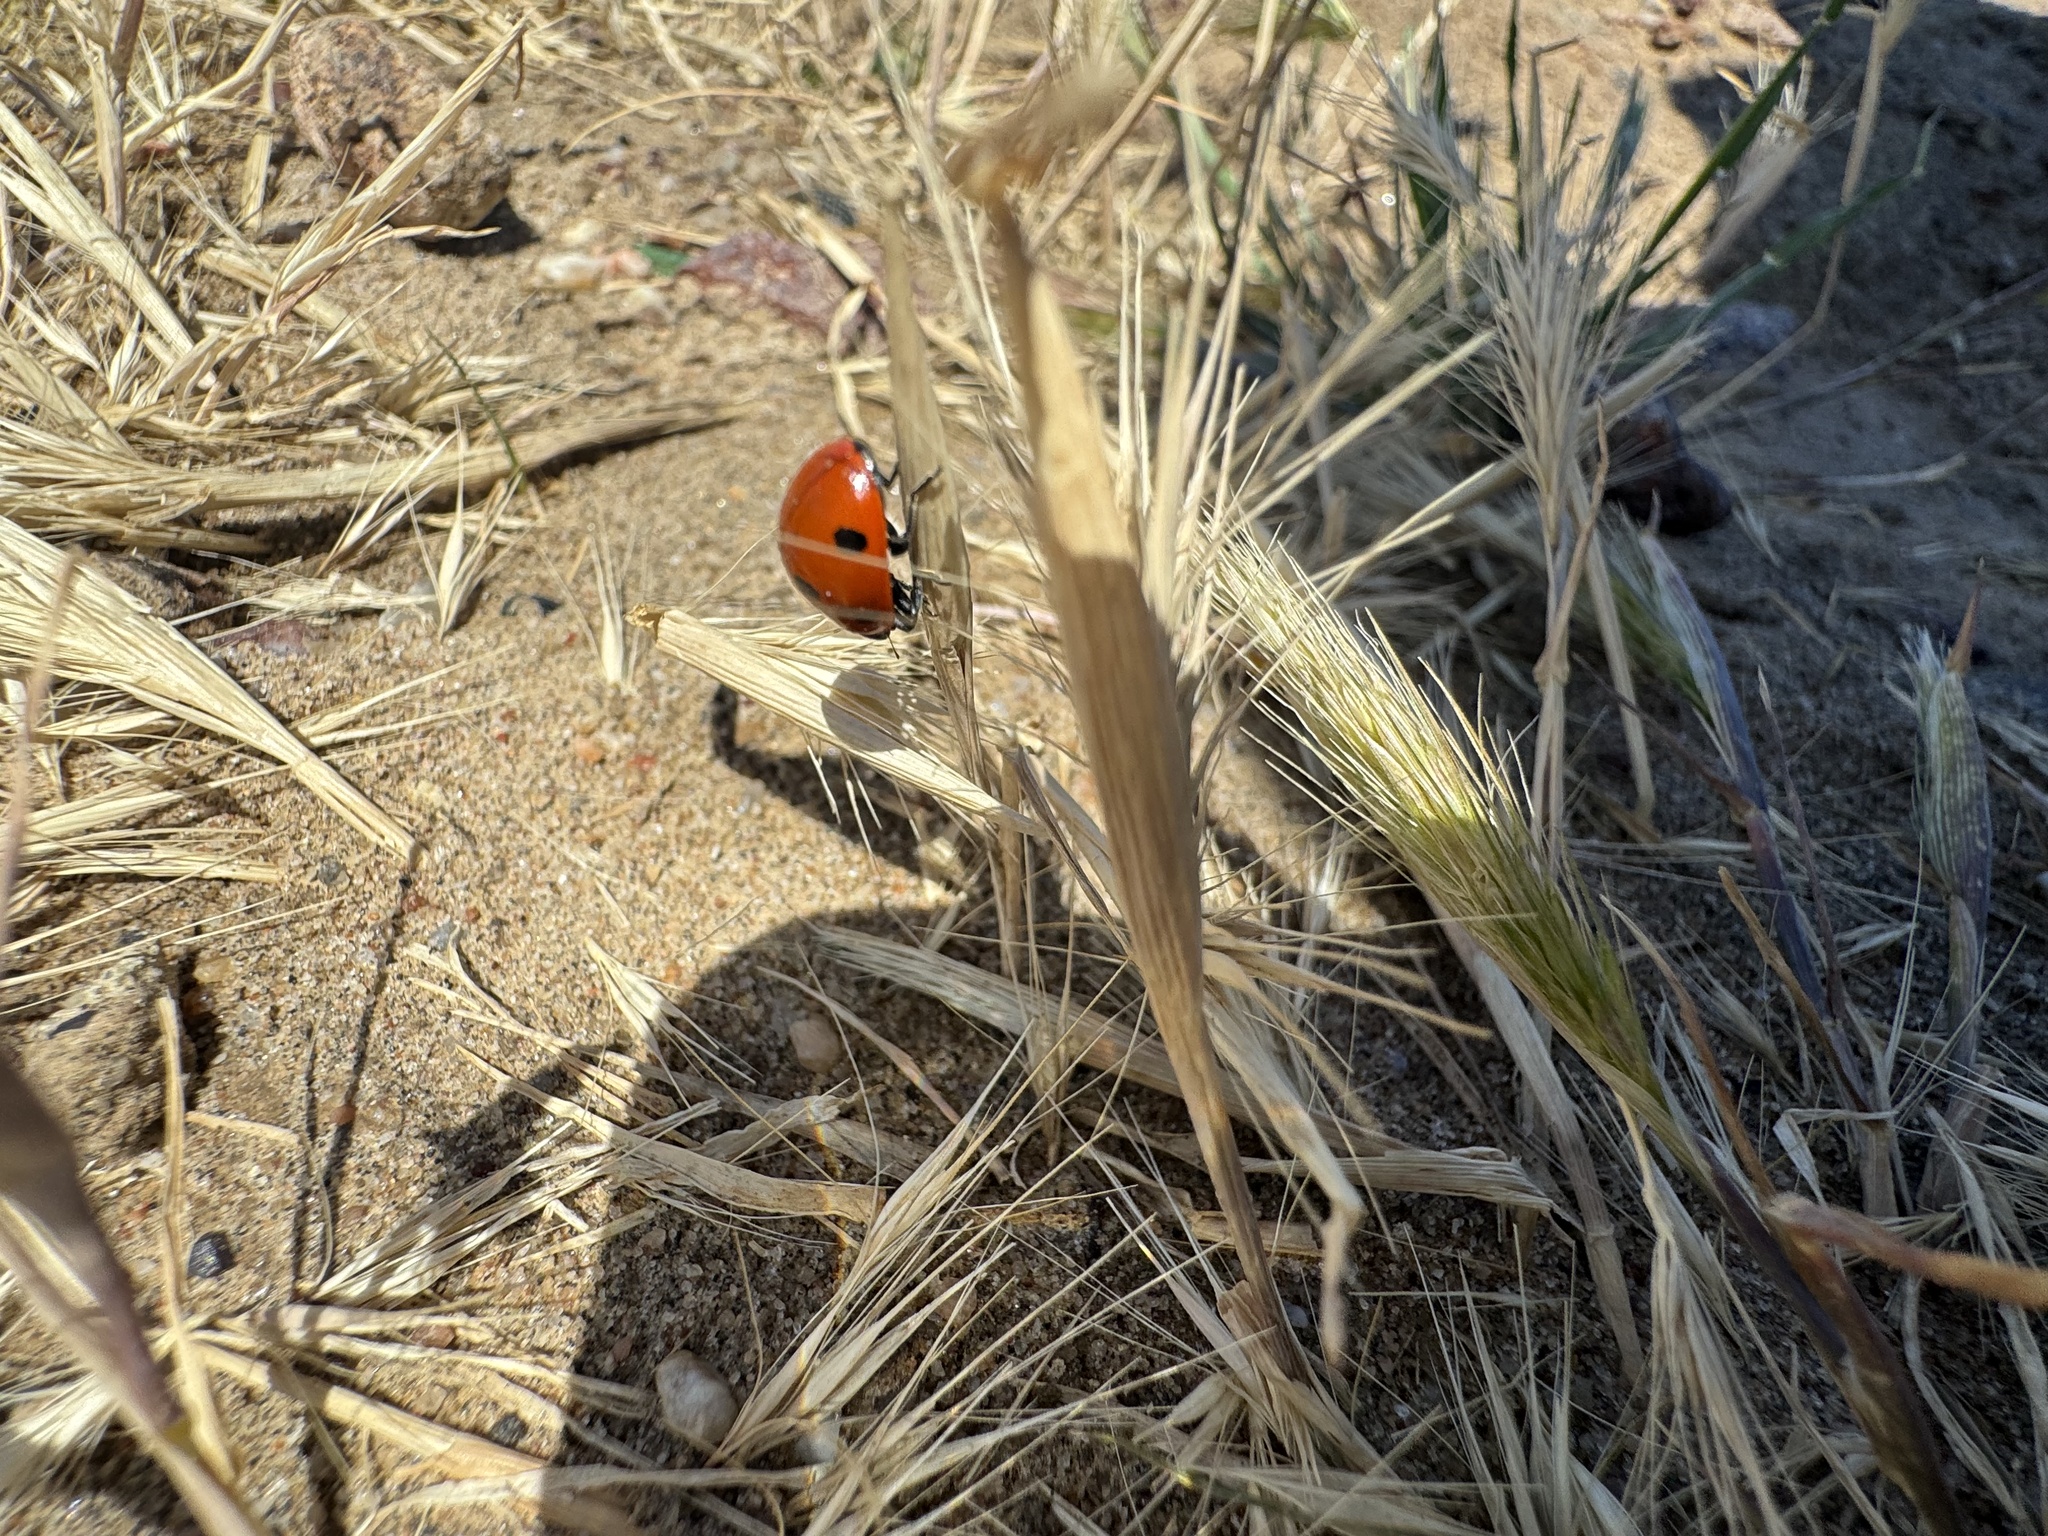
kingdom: Animalia
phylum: Arthropoda
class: Insecta
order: Coleoptera
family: Coccinellidae
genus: Coccinella
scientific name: Coccinella septempunctata
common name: Sevenspotted lady beetle
